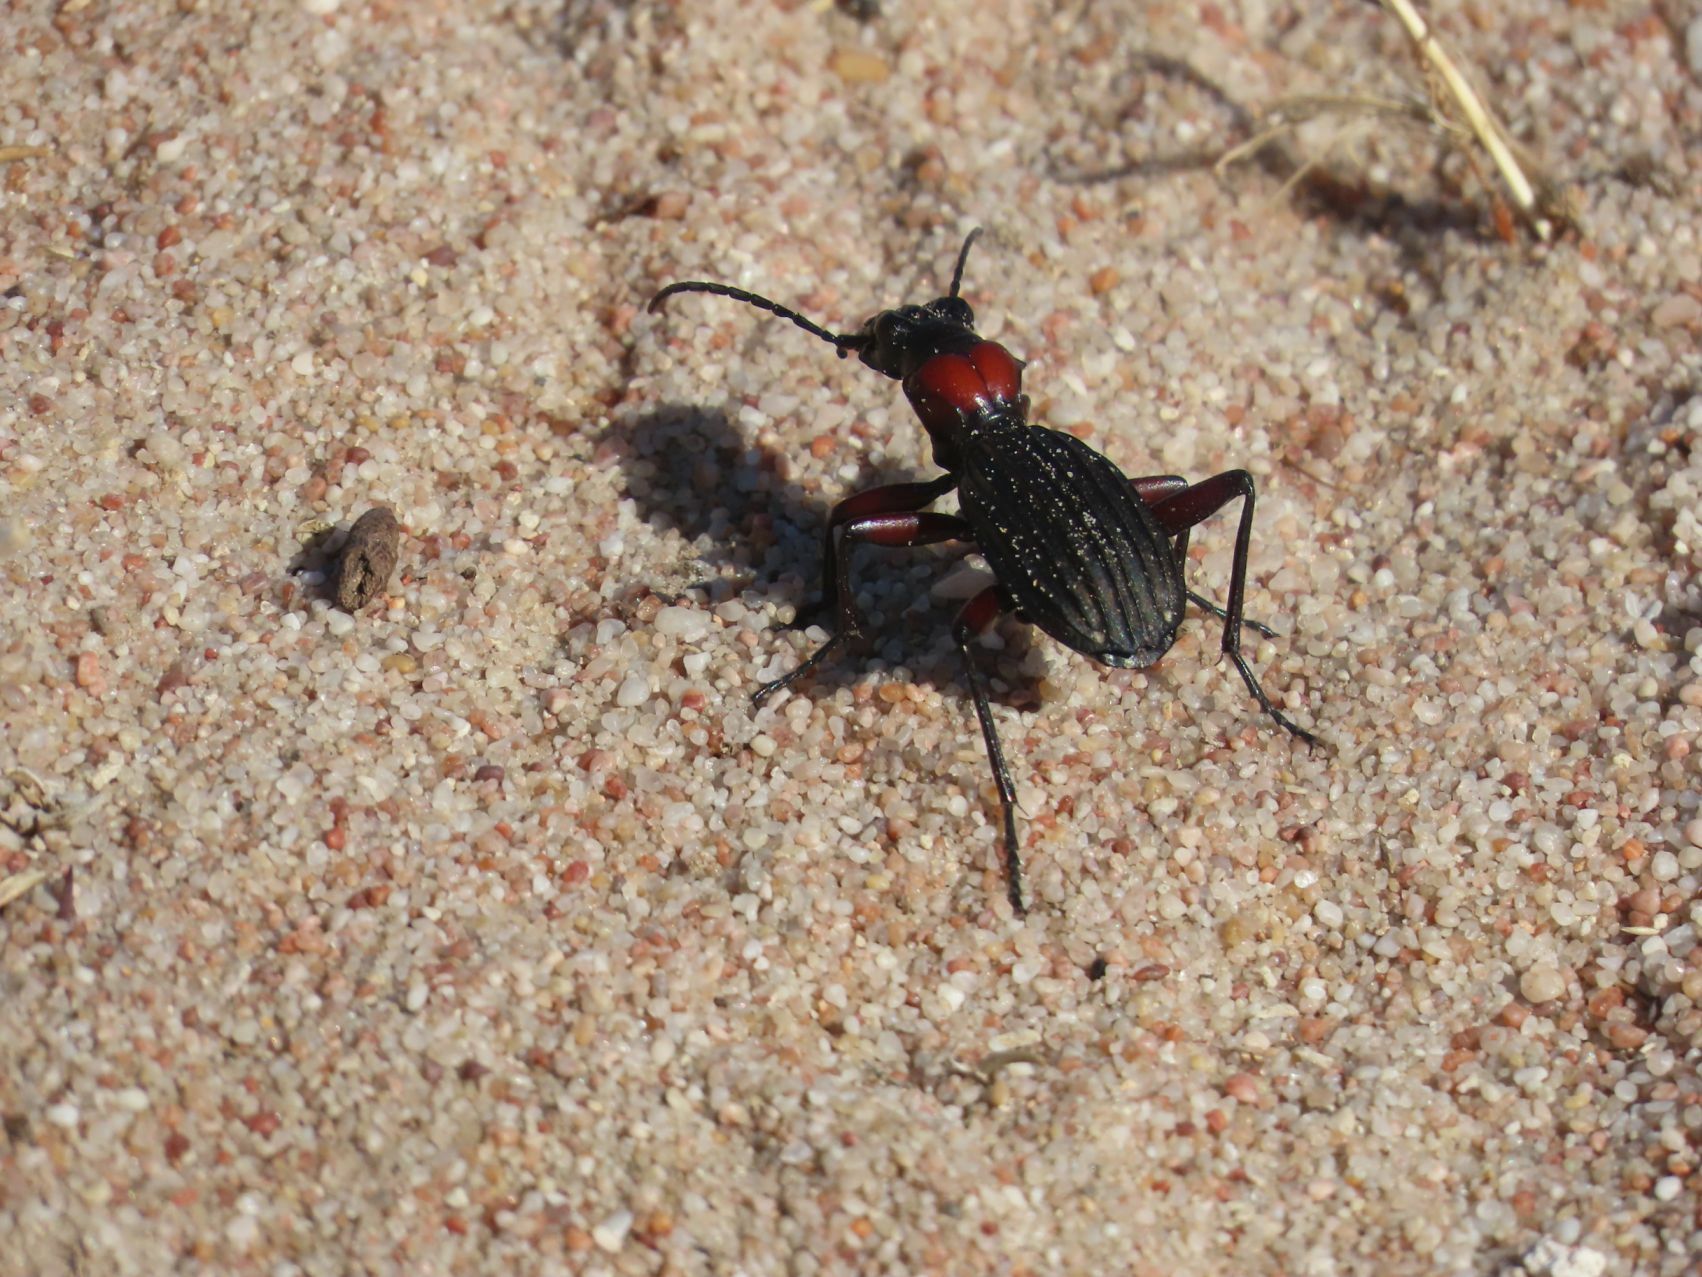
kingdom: Animalia
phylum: Arthropoda
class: Insecta
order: Coleoptera
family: Carabidae
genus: Anthia
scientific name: Anthia decemguttata
